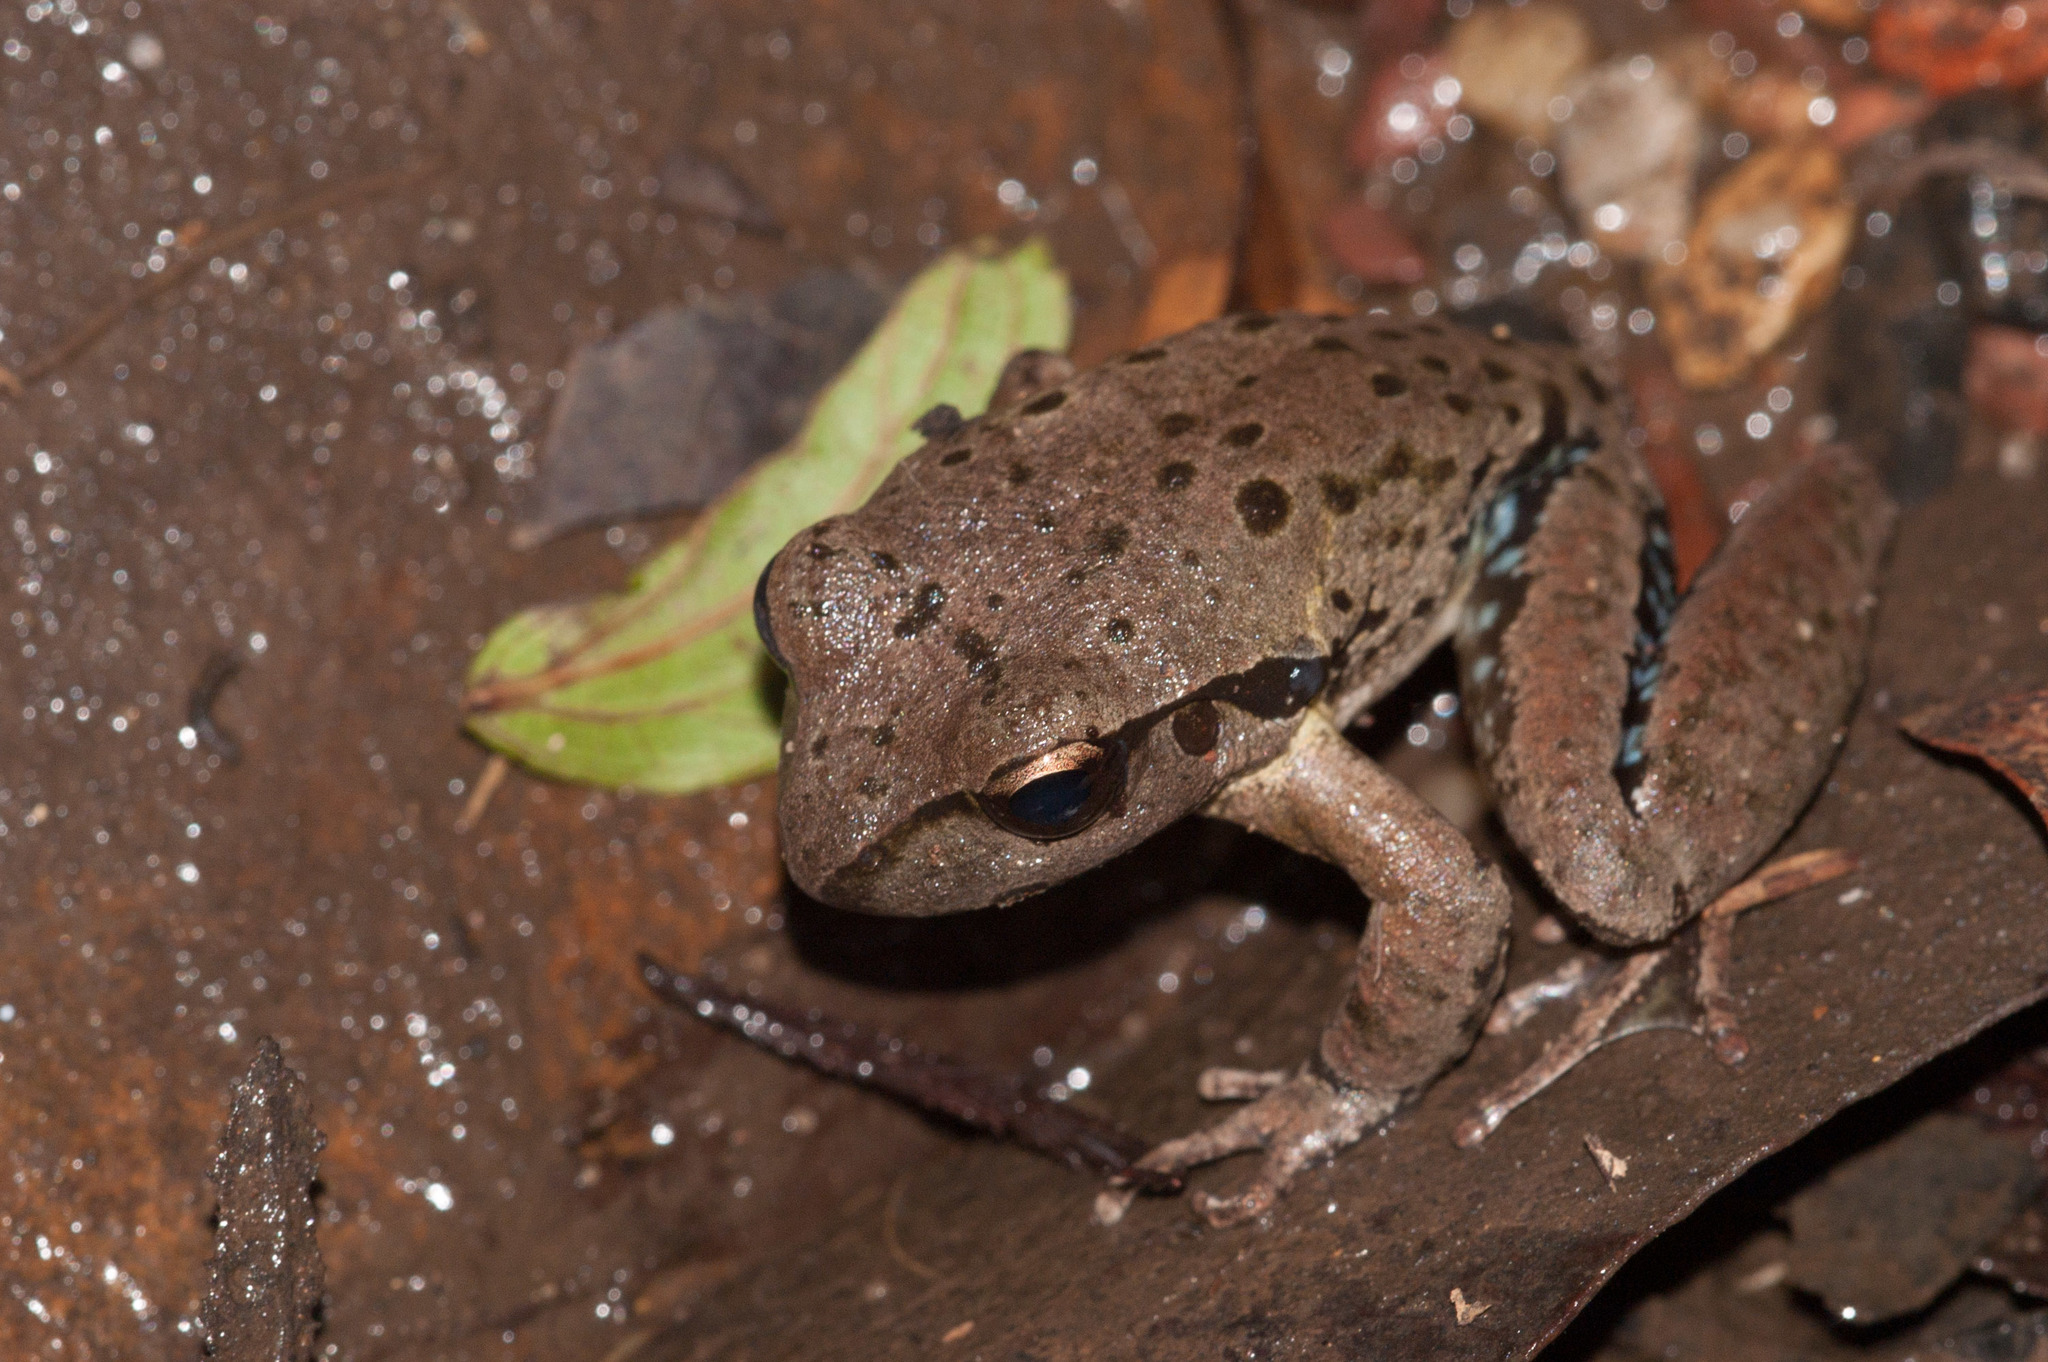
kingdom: Animalia
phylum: Chordata
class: Amphibia
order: Anura
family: Pelodryadidae
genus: Ranoidea
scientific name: Ranoidea lesueurii
